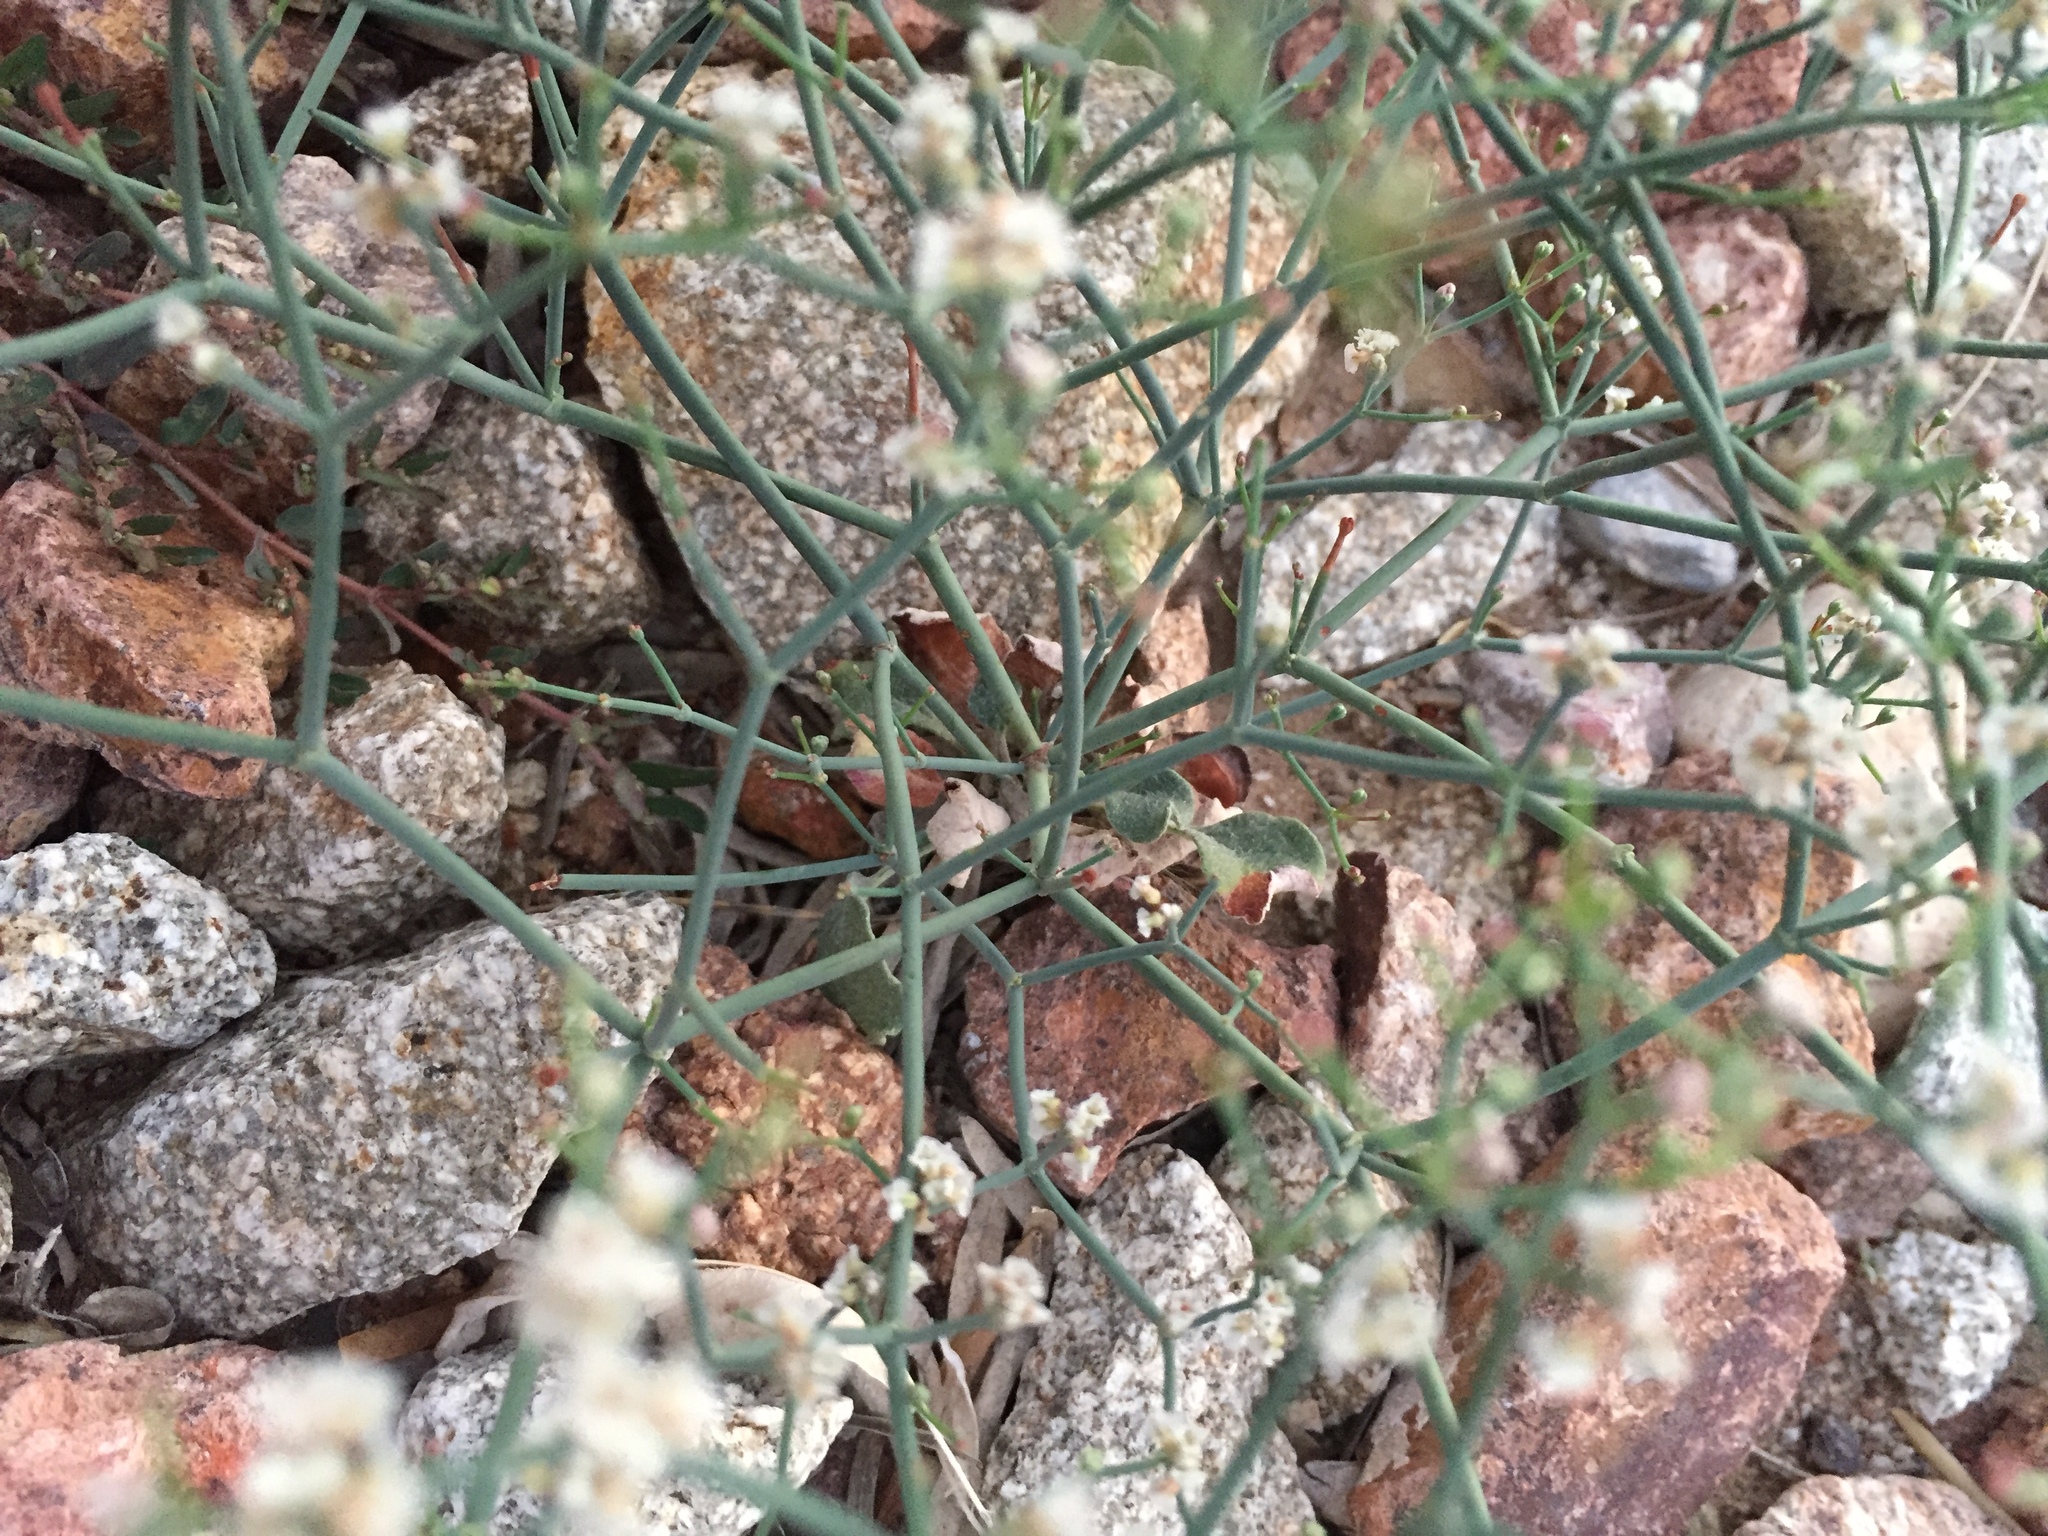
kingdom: Plantae
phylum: Tracheophyta
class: Magnoliopsida
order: Caryophyllales
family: Polygonaceae
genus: Eriogonum
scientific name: Eriogonum rotundifolium
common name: Round-leaf wild buckwheat
